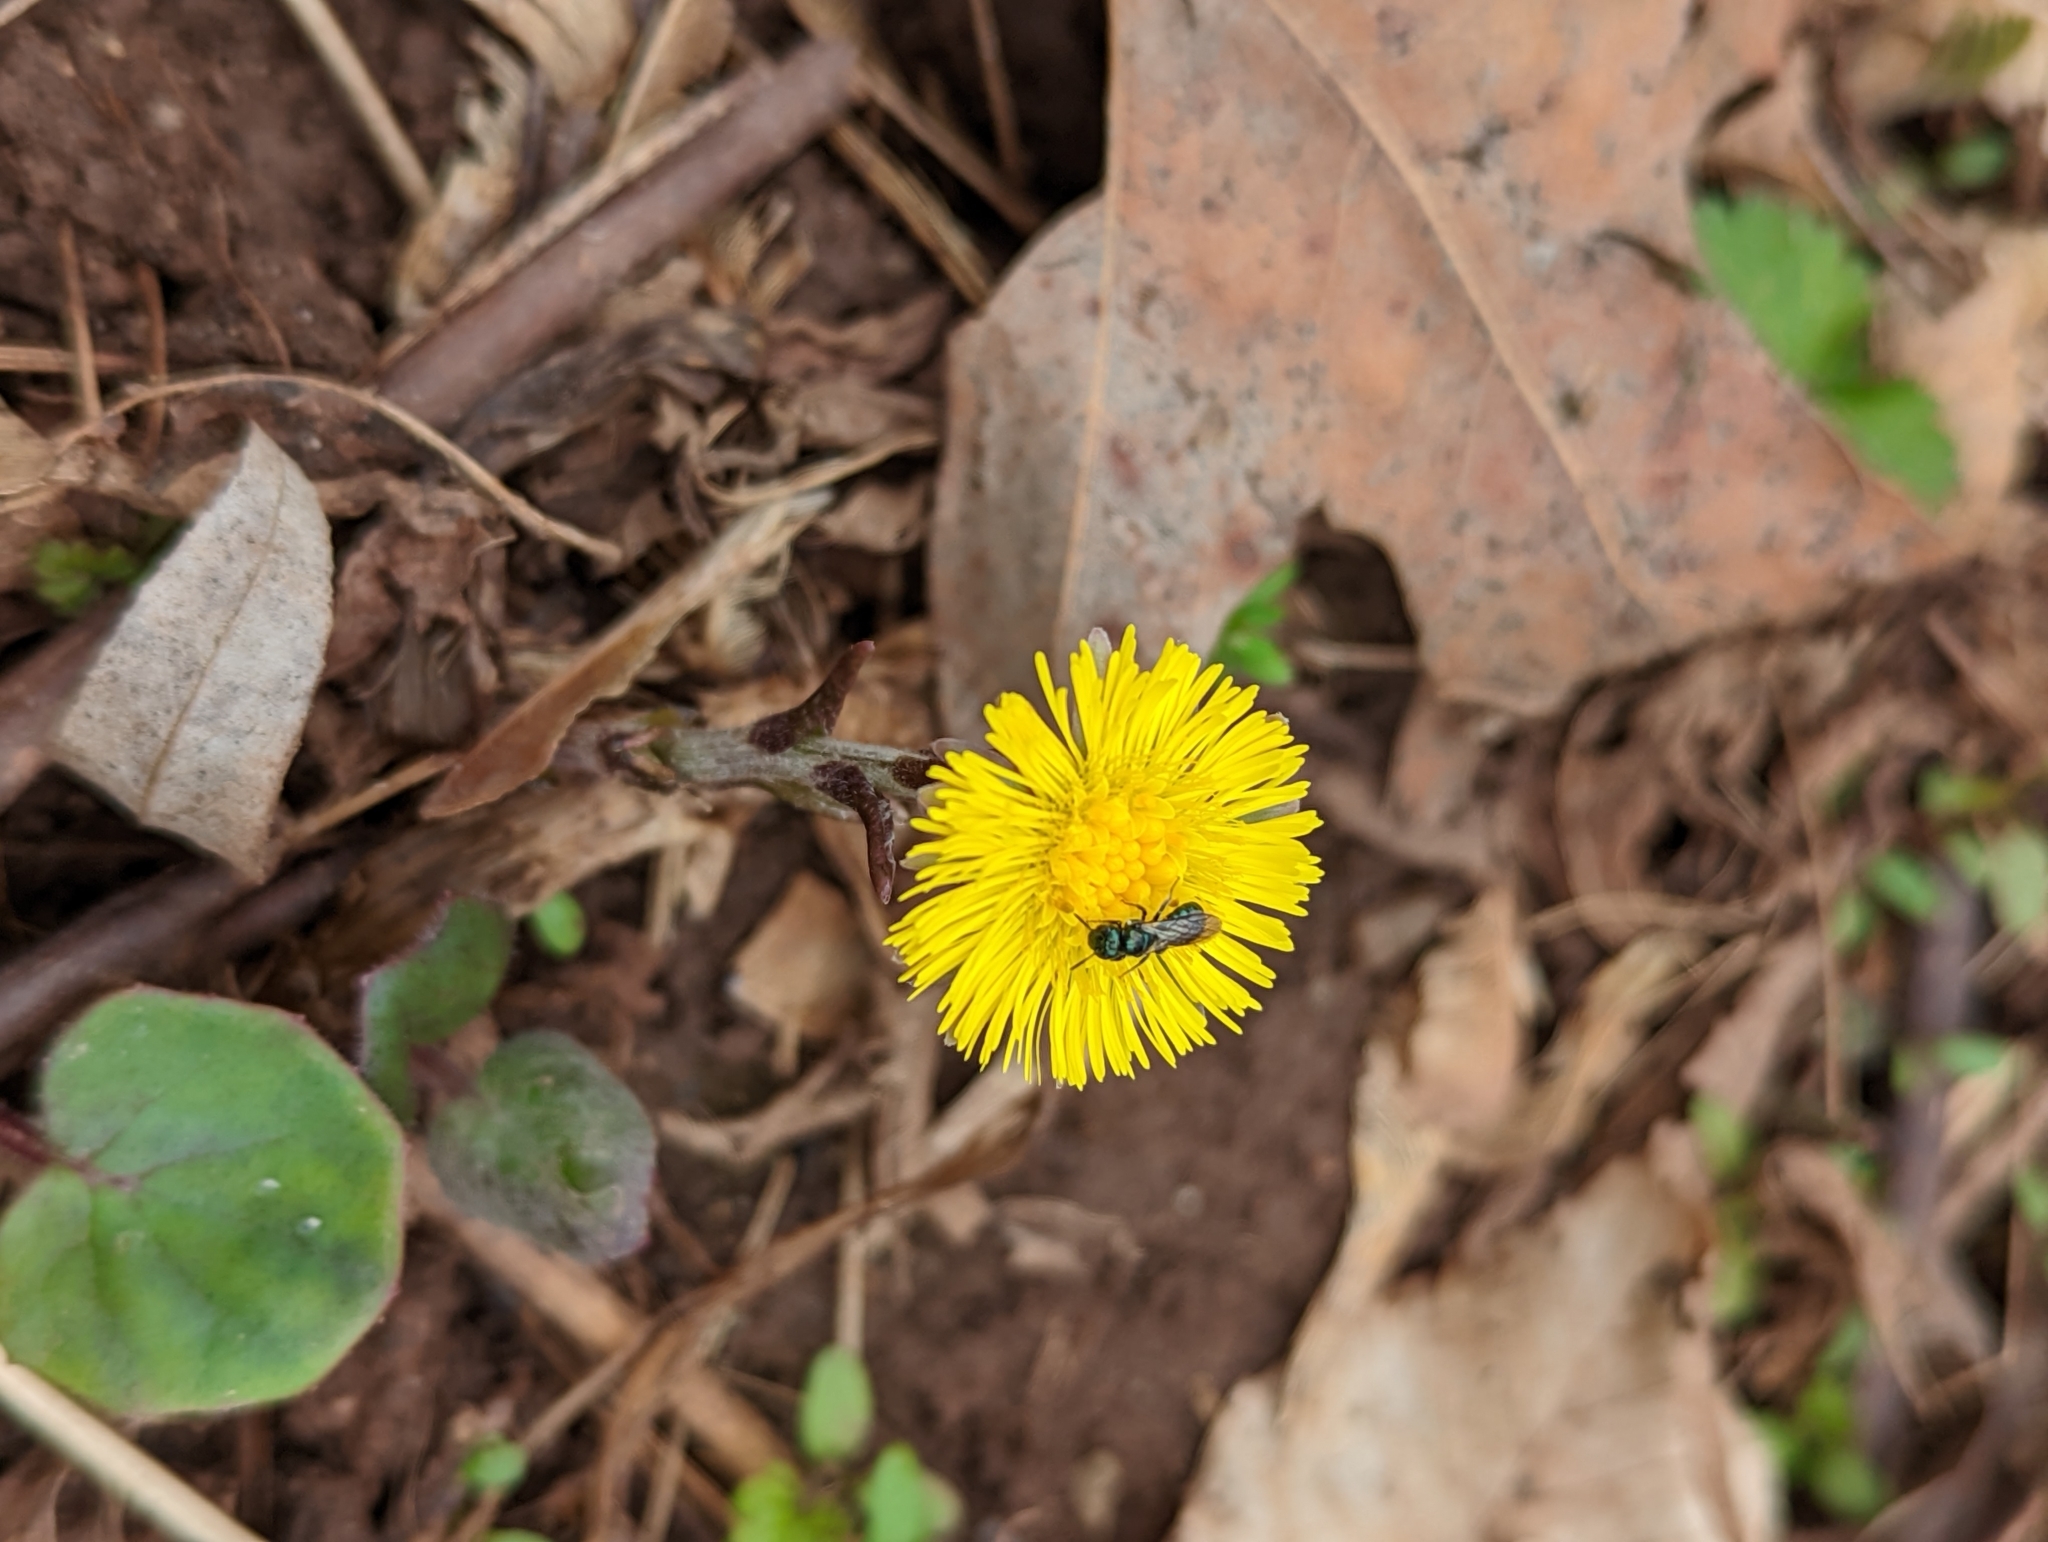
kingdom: Plantae
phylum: Tracheophyta
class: Magnoliopsida
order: Asterales
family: Asteraceae
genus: Tussilago
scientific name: Tussilago farfara
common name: Coltsfoot
